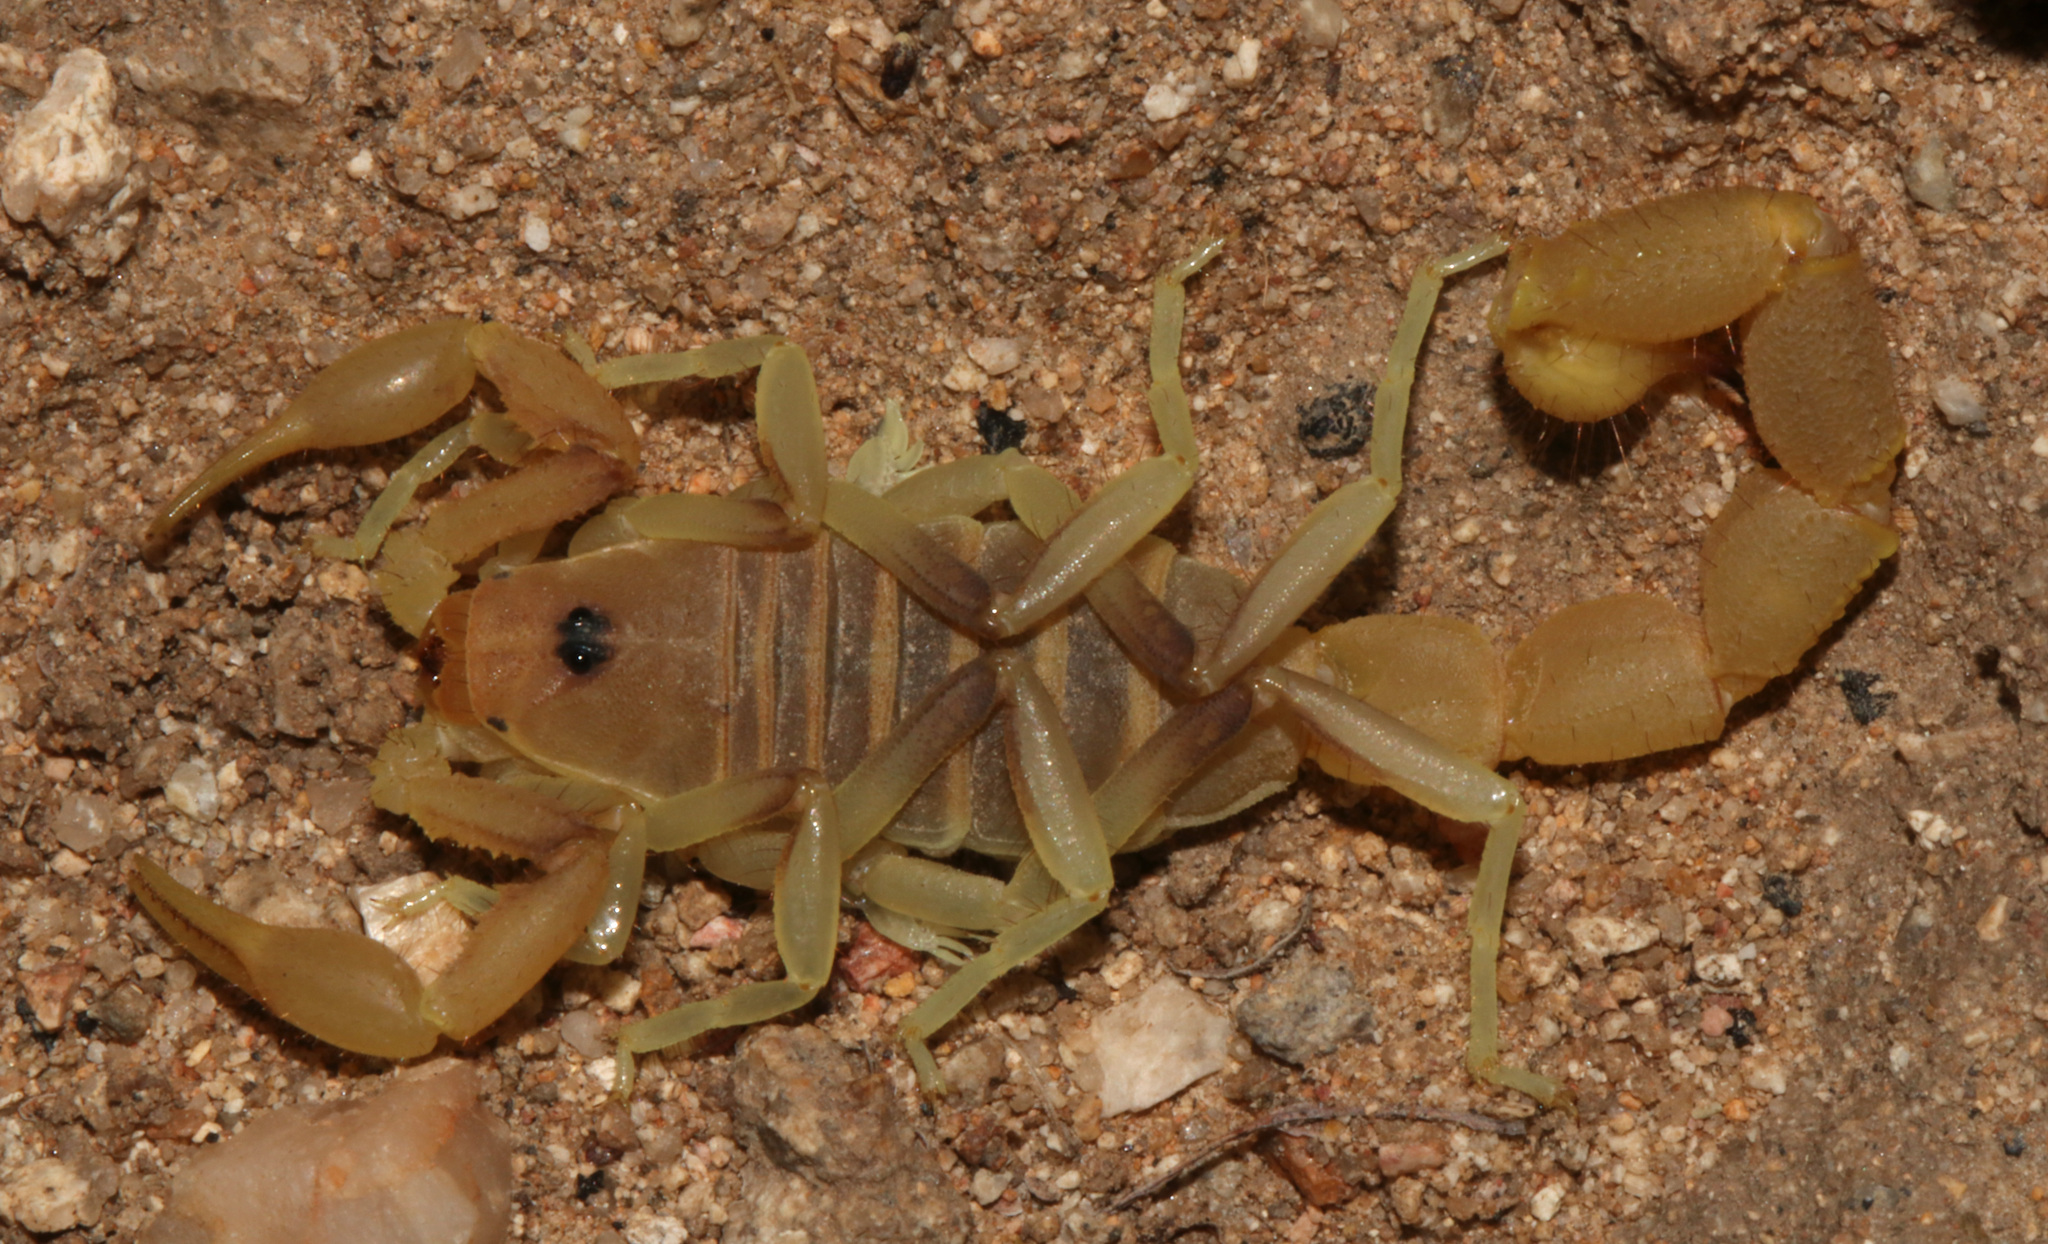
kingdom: Animalia
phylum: Arthropoda
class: Arachnida
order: Scorpiones
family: Buthidae
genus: Parabuthus
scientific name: Parabuthus brevimanus
